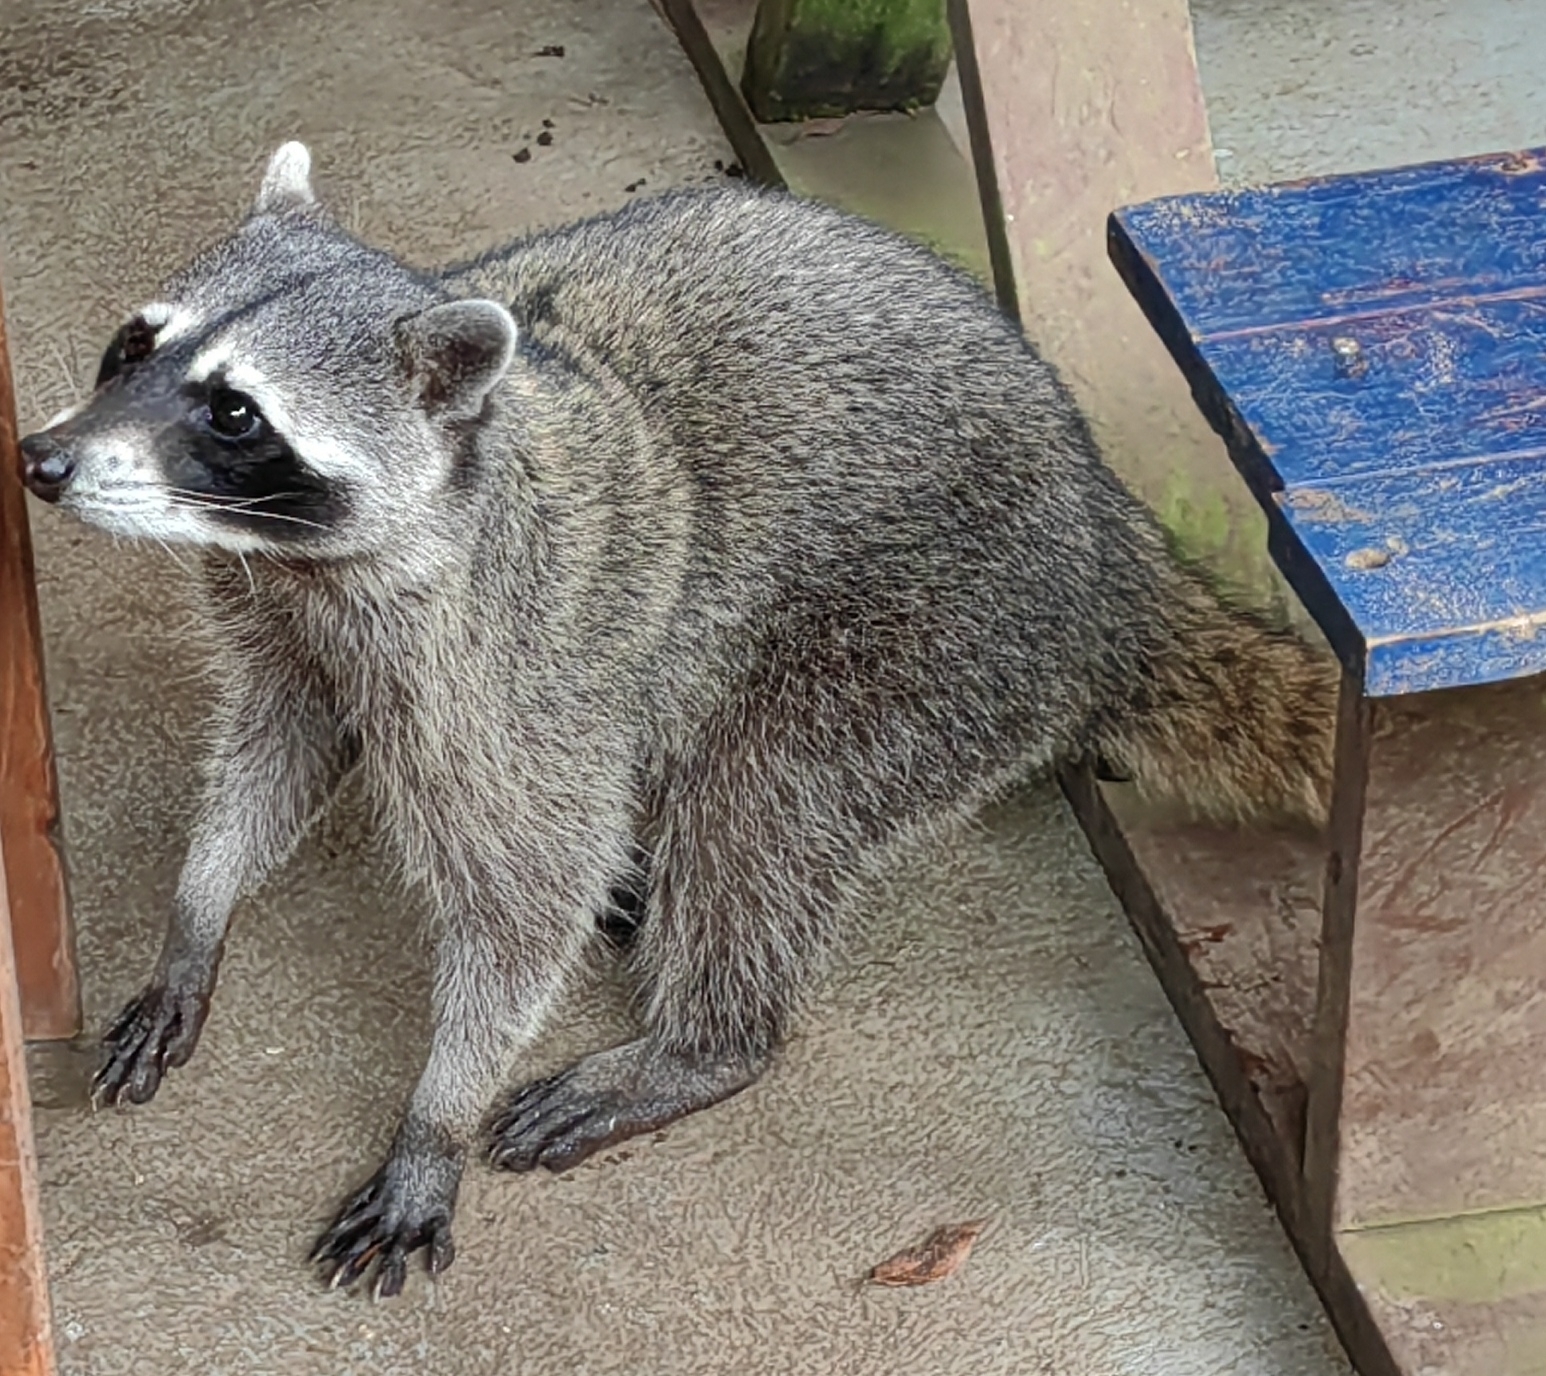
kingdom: Animalia
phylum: Chordata
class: Mammalia
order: Carnivora
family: Procyonidae
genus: Procyon
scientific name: Procyon lotor
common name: Raccoon
